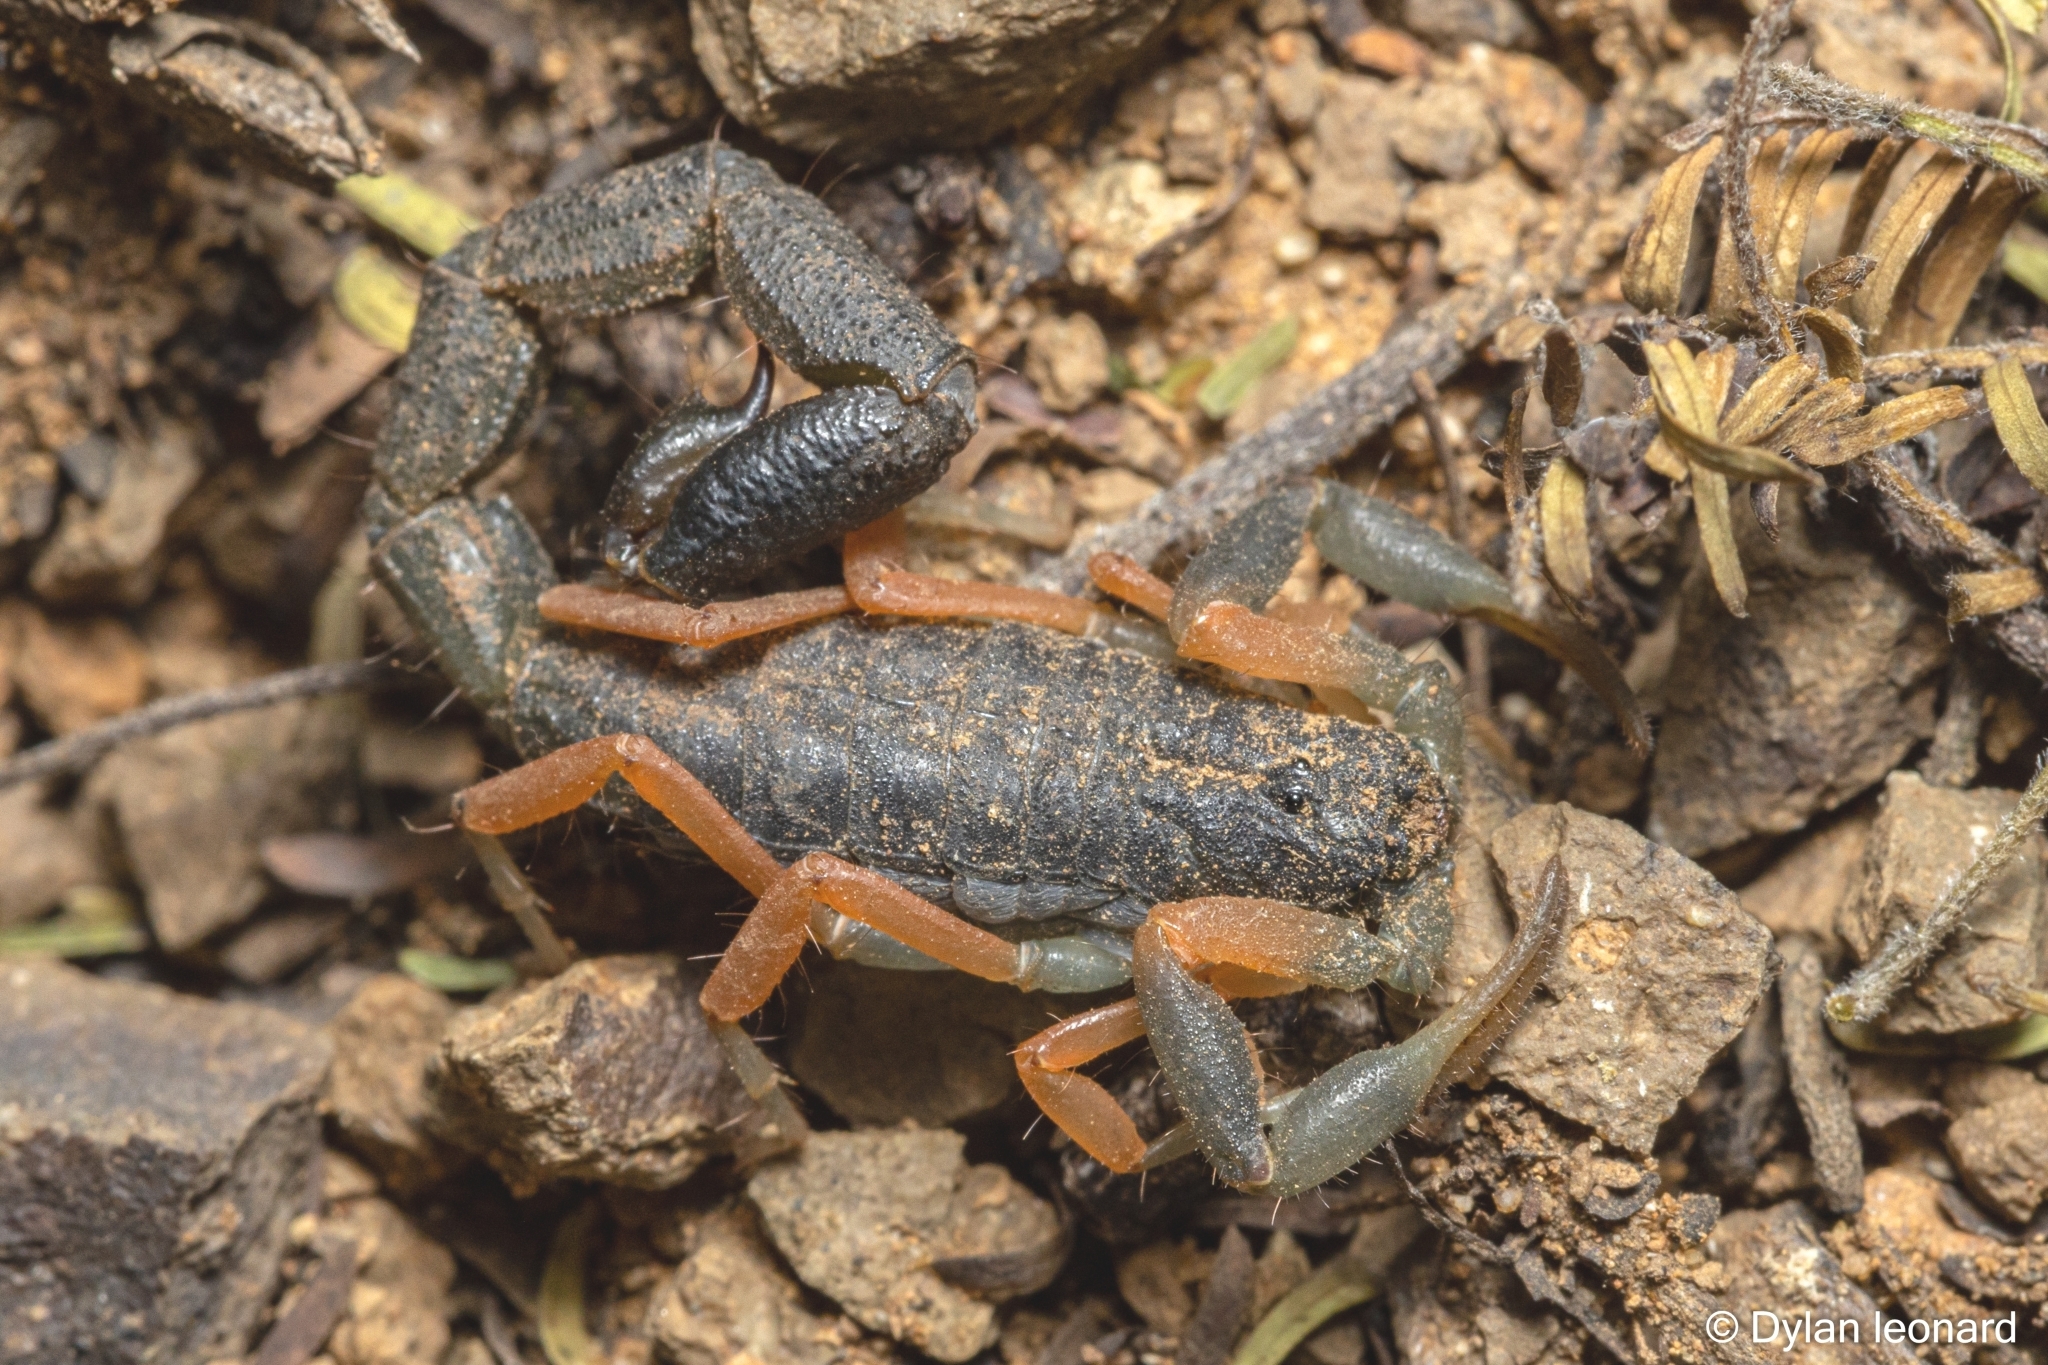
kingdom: Animalia
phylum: Arthropoda
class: Arachnida
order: Scorpiones
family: Buthidae
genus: Uroplectes
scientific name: Uroplectes triangulifer
